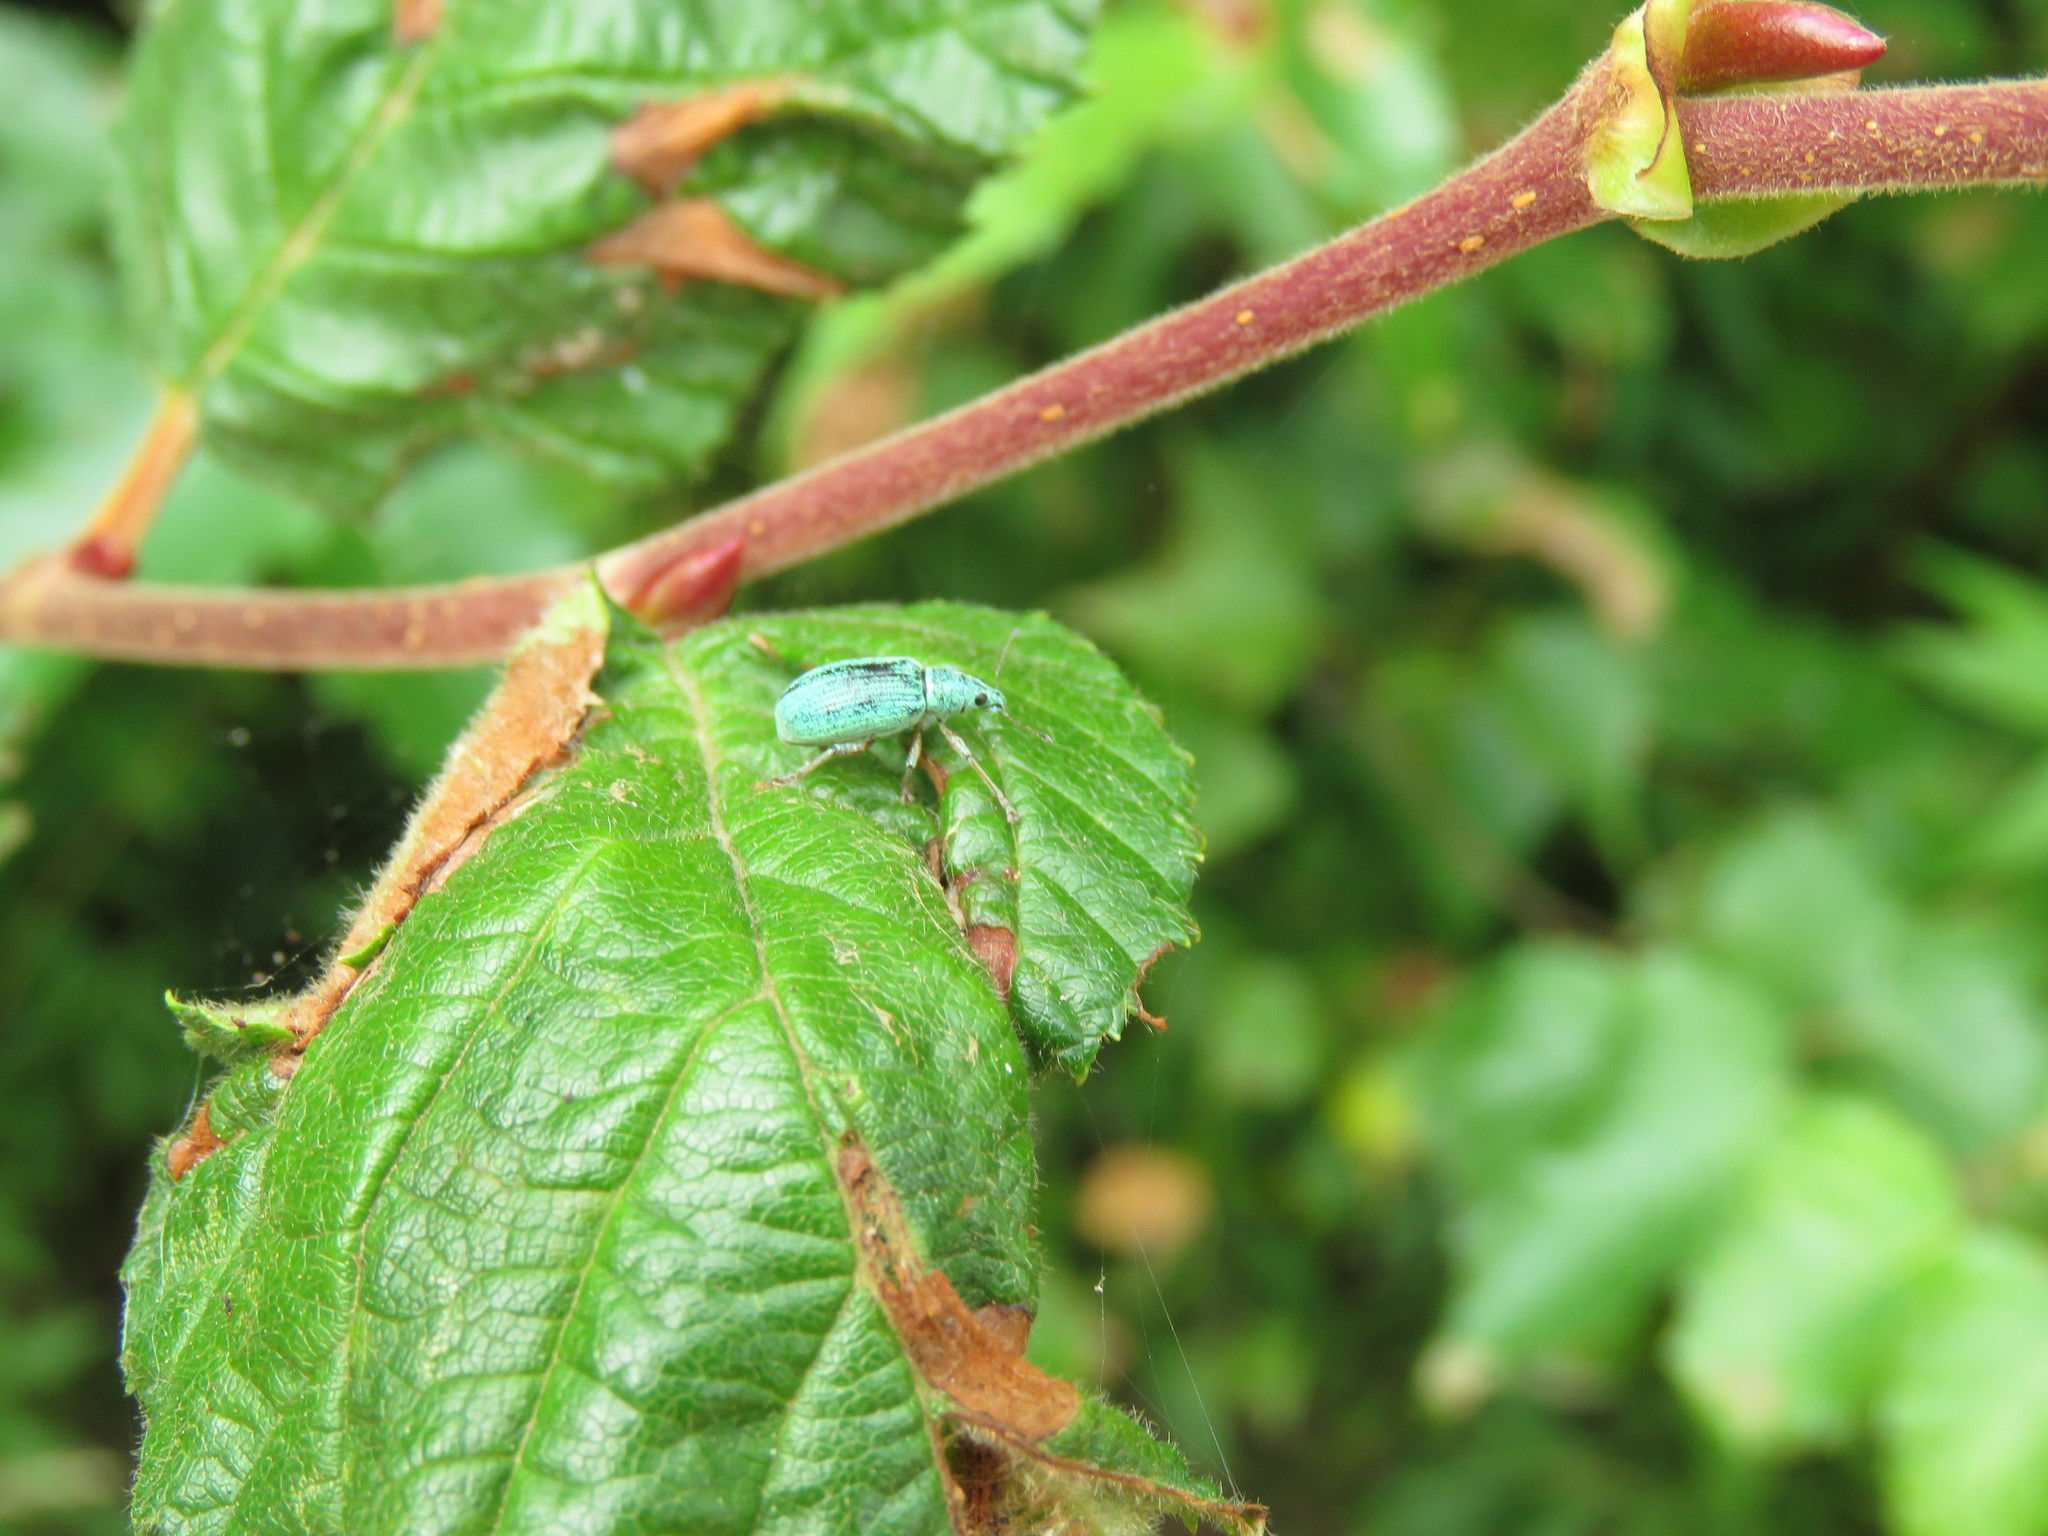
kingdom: Animalia
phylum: Arthropoda
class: Insecta
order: Coleoptera
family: Curculionidae
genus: Polydrusus
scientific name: Polydrusus formosus
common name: Weevil
